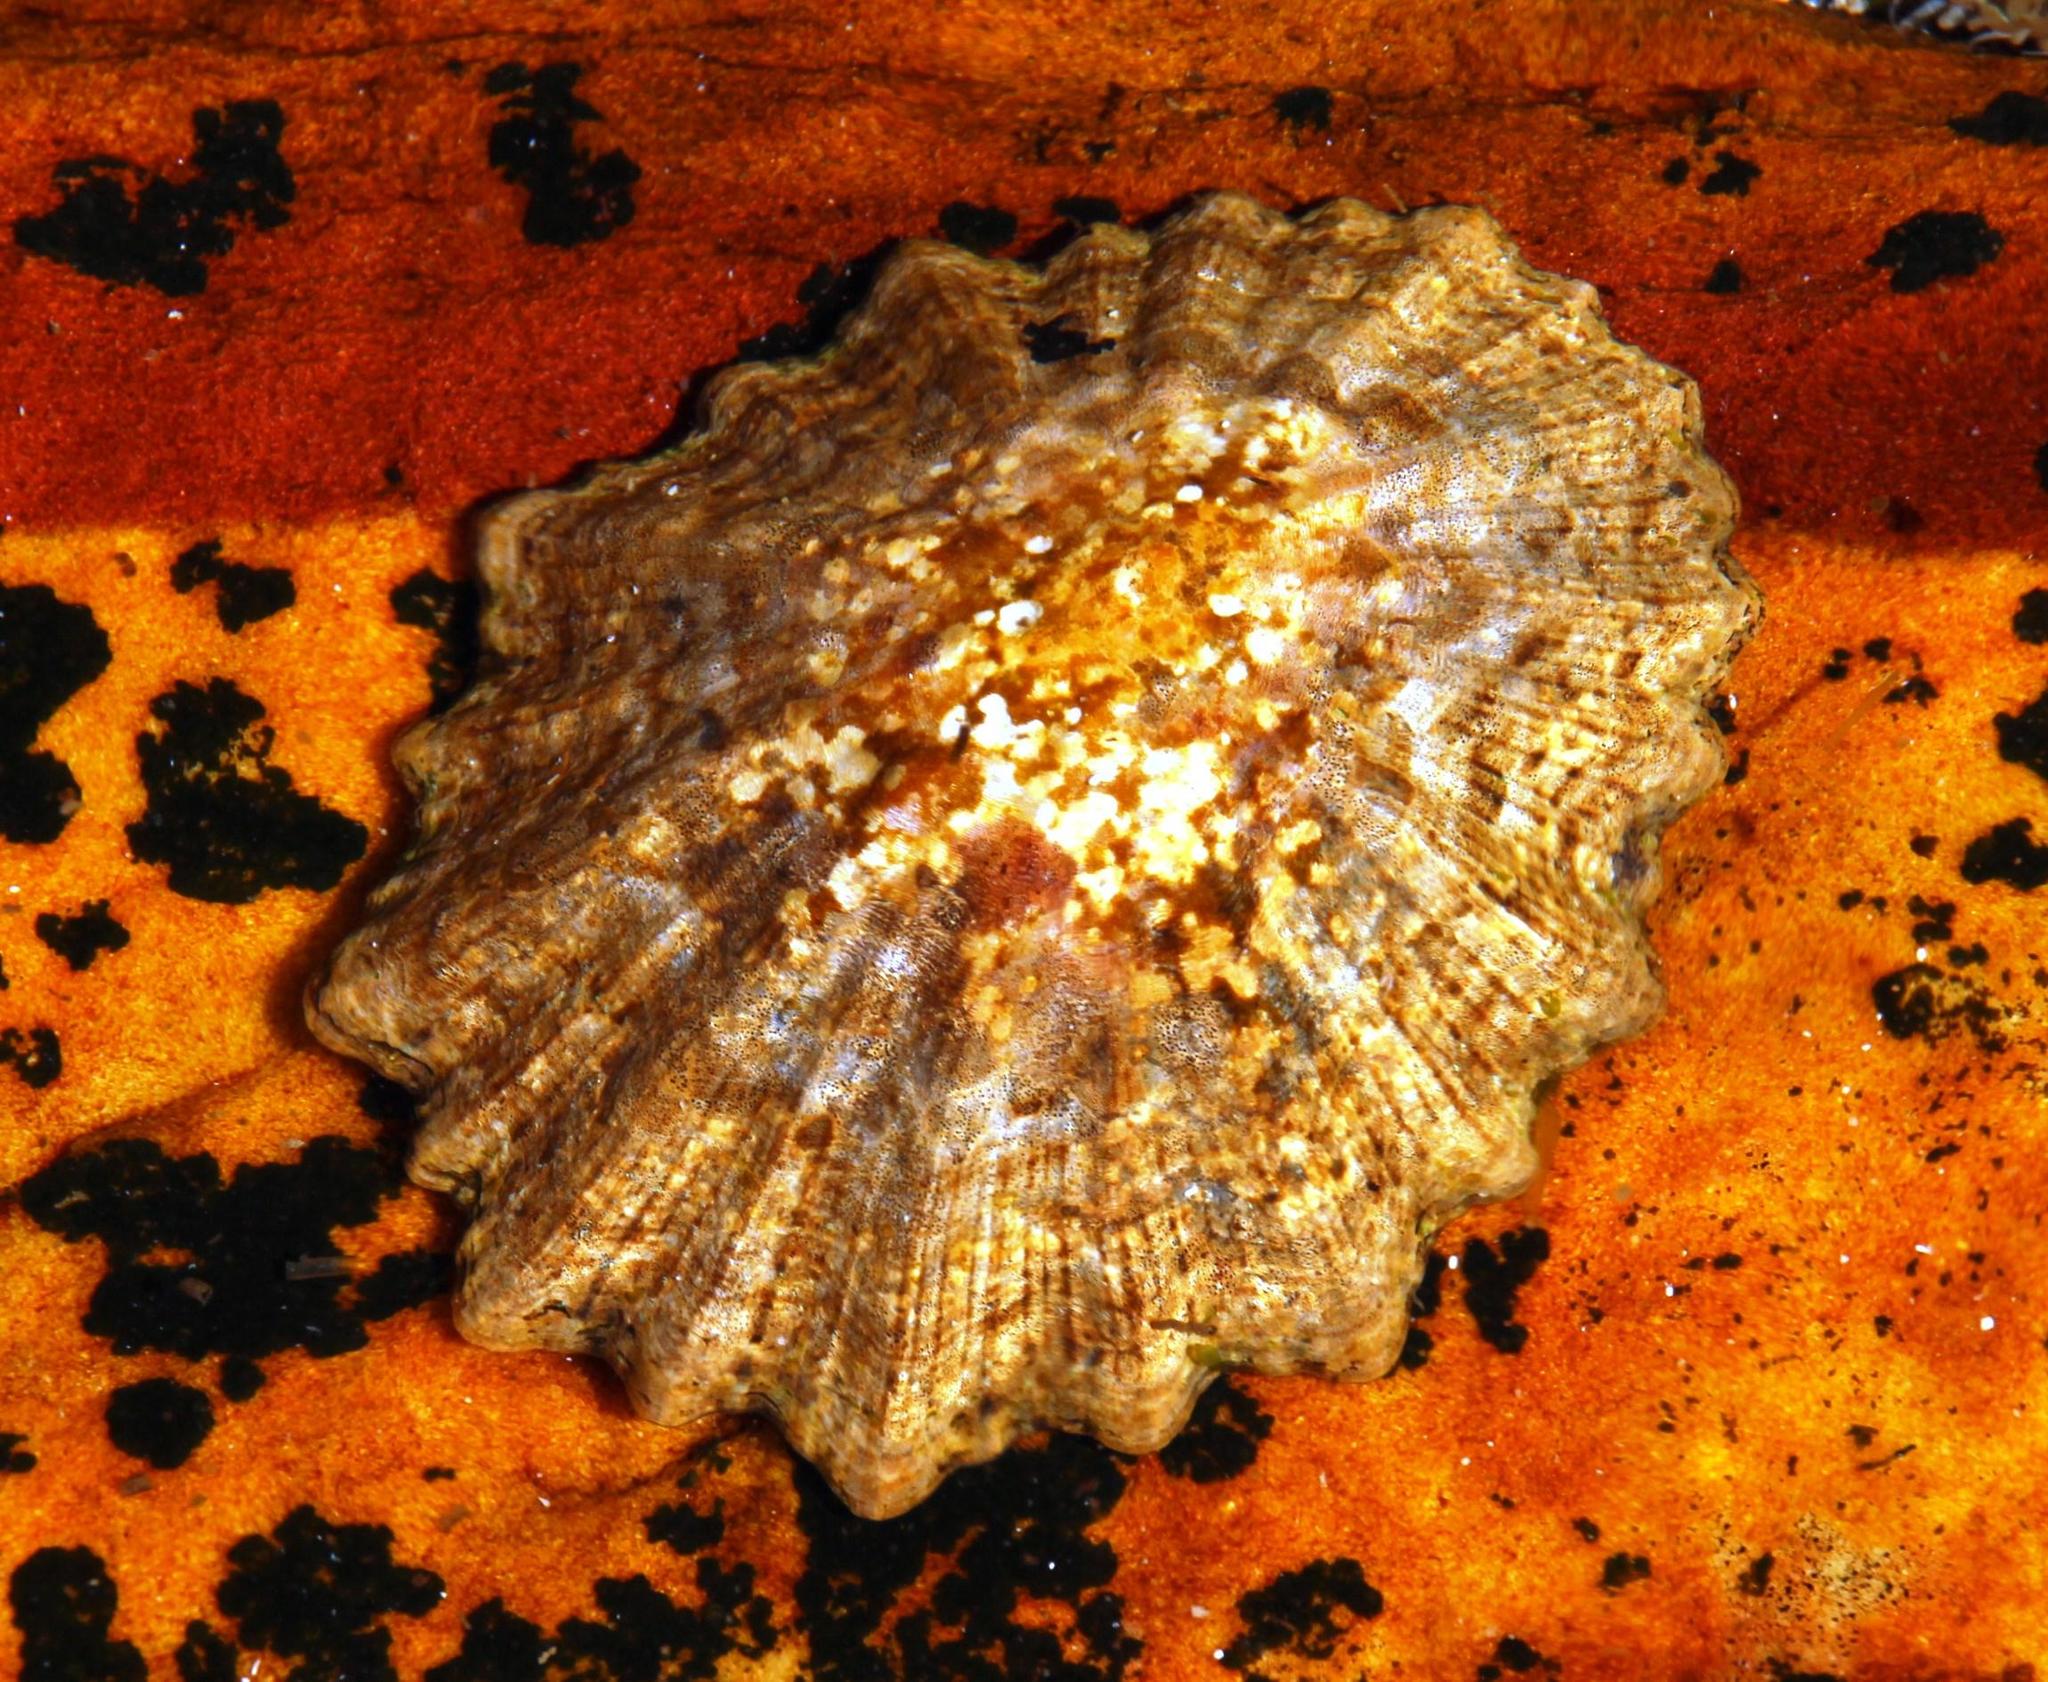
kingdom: Animalia
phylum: Mollusca
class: Gastropoda
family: Patellidae
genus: Scutellastra
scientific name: Scutellastra tabularis
